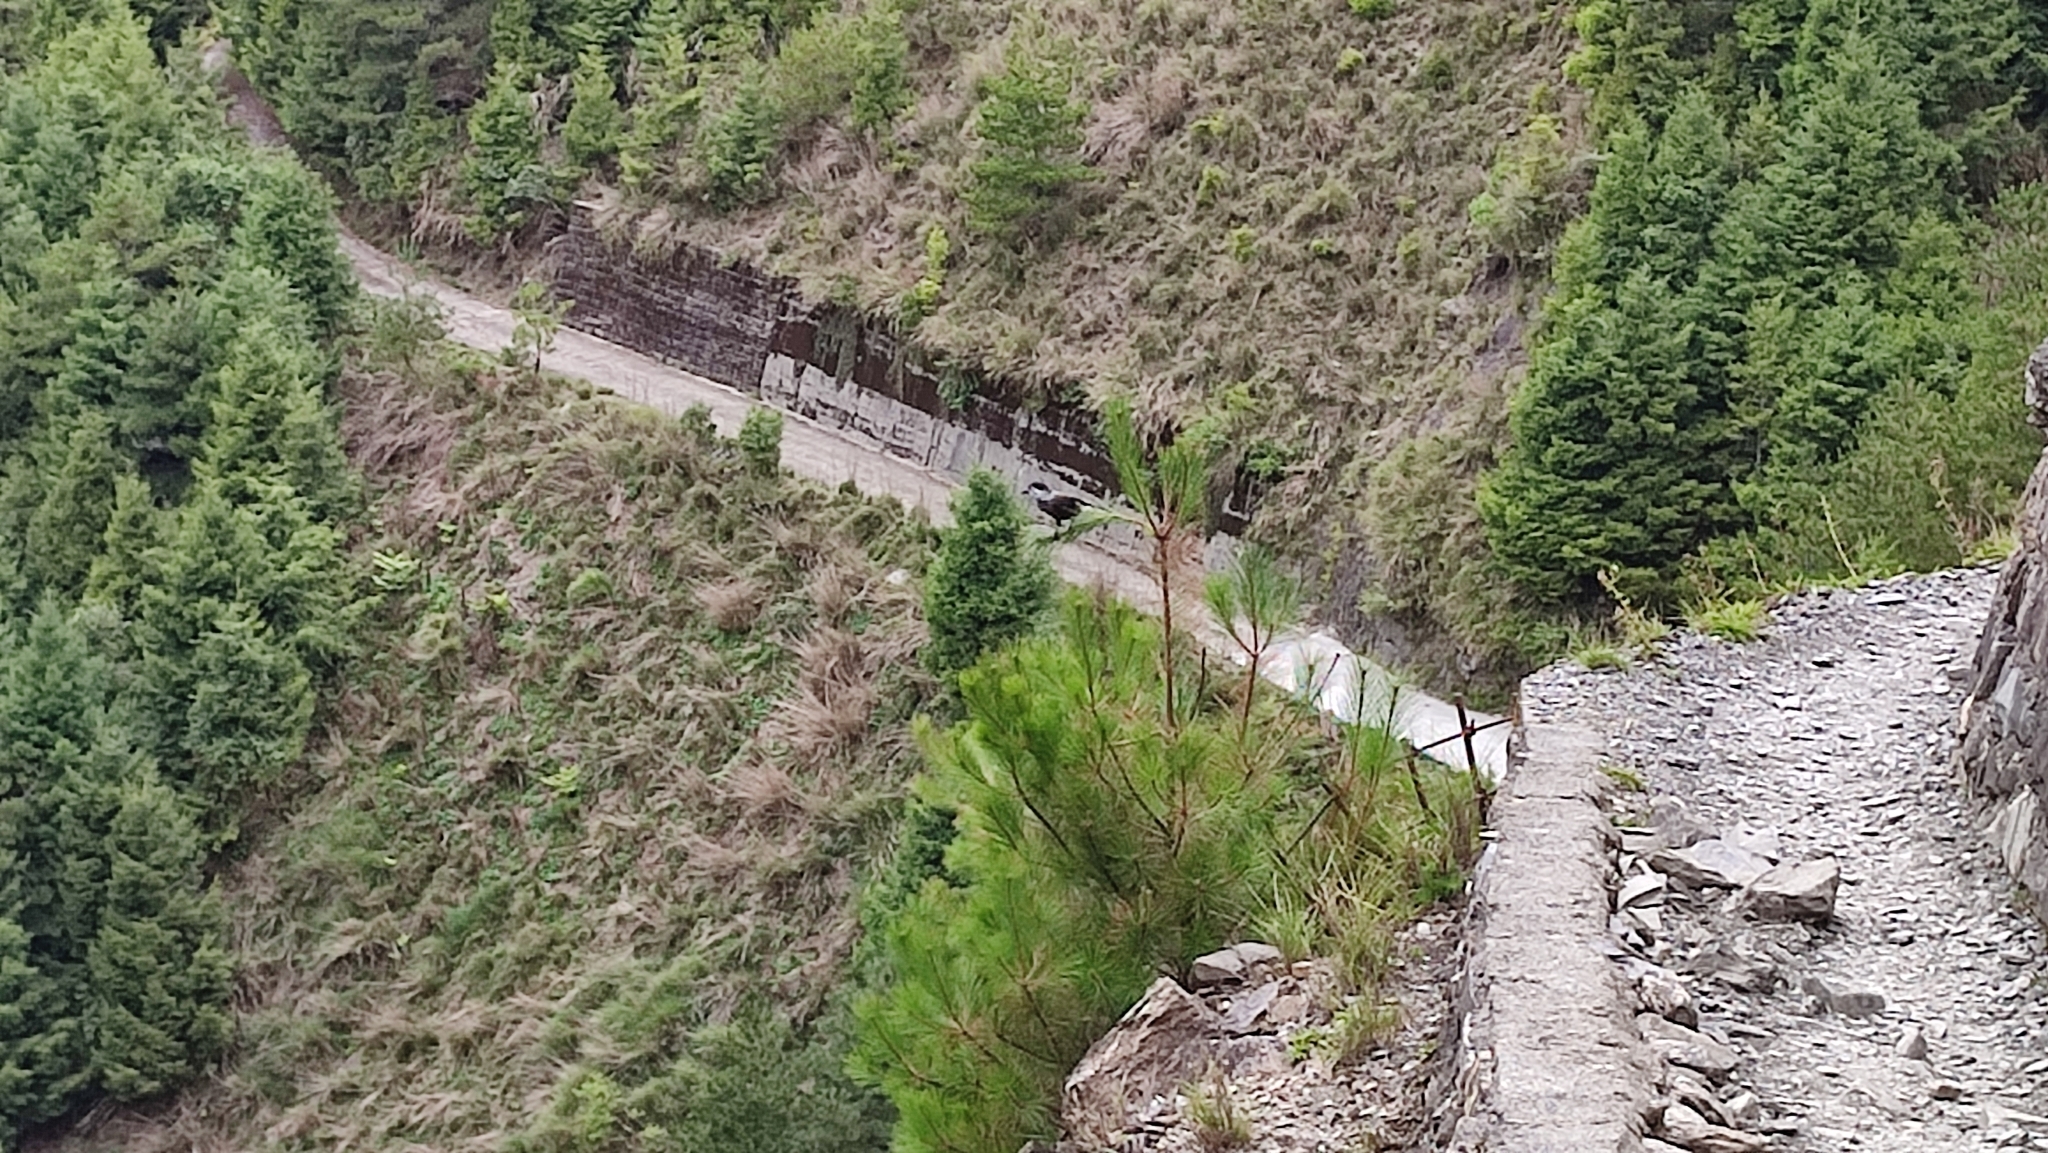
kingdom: Animalia
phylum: Chordata
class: Aves
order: Passeriformes
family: Corvidae
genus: Nucifraga
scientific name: Nucifraga caryocatactes
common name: Spotted nutcracker
